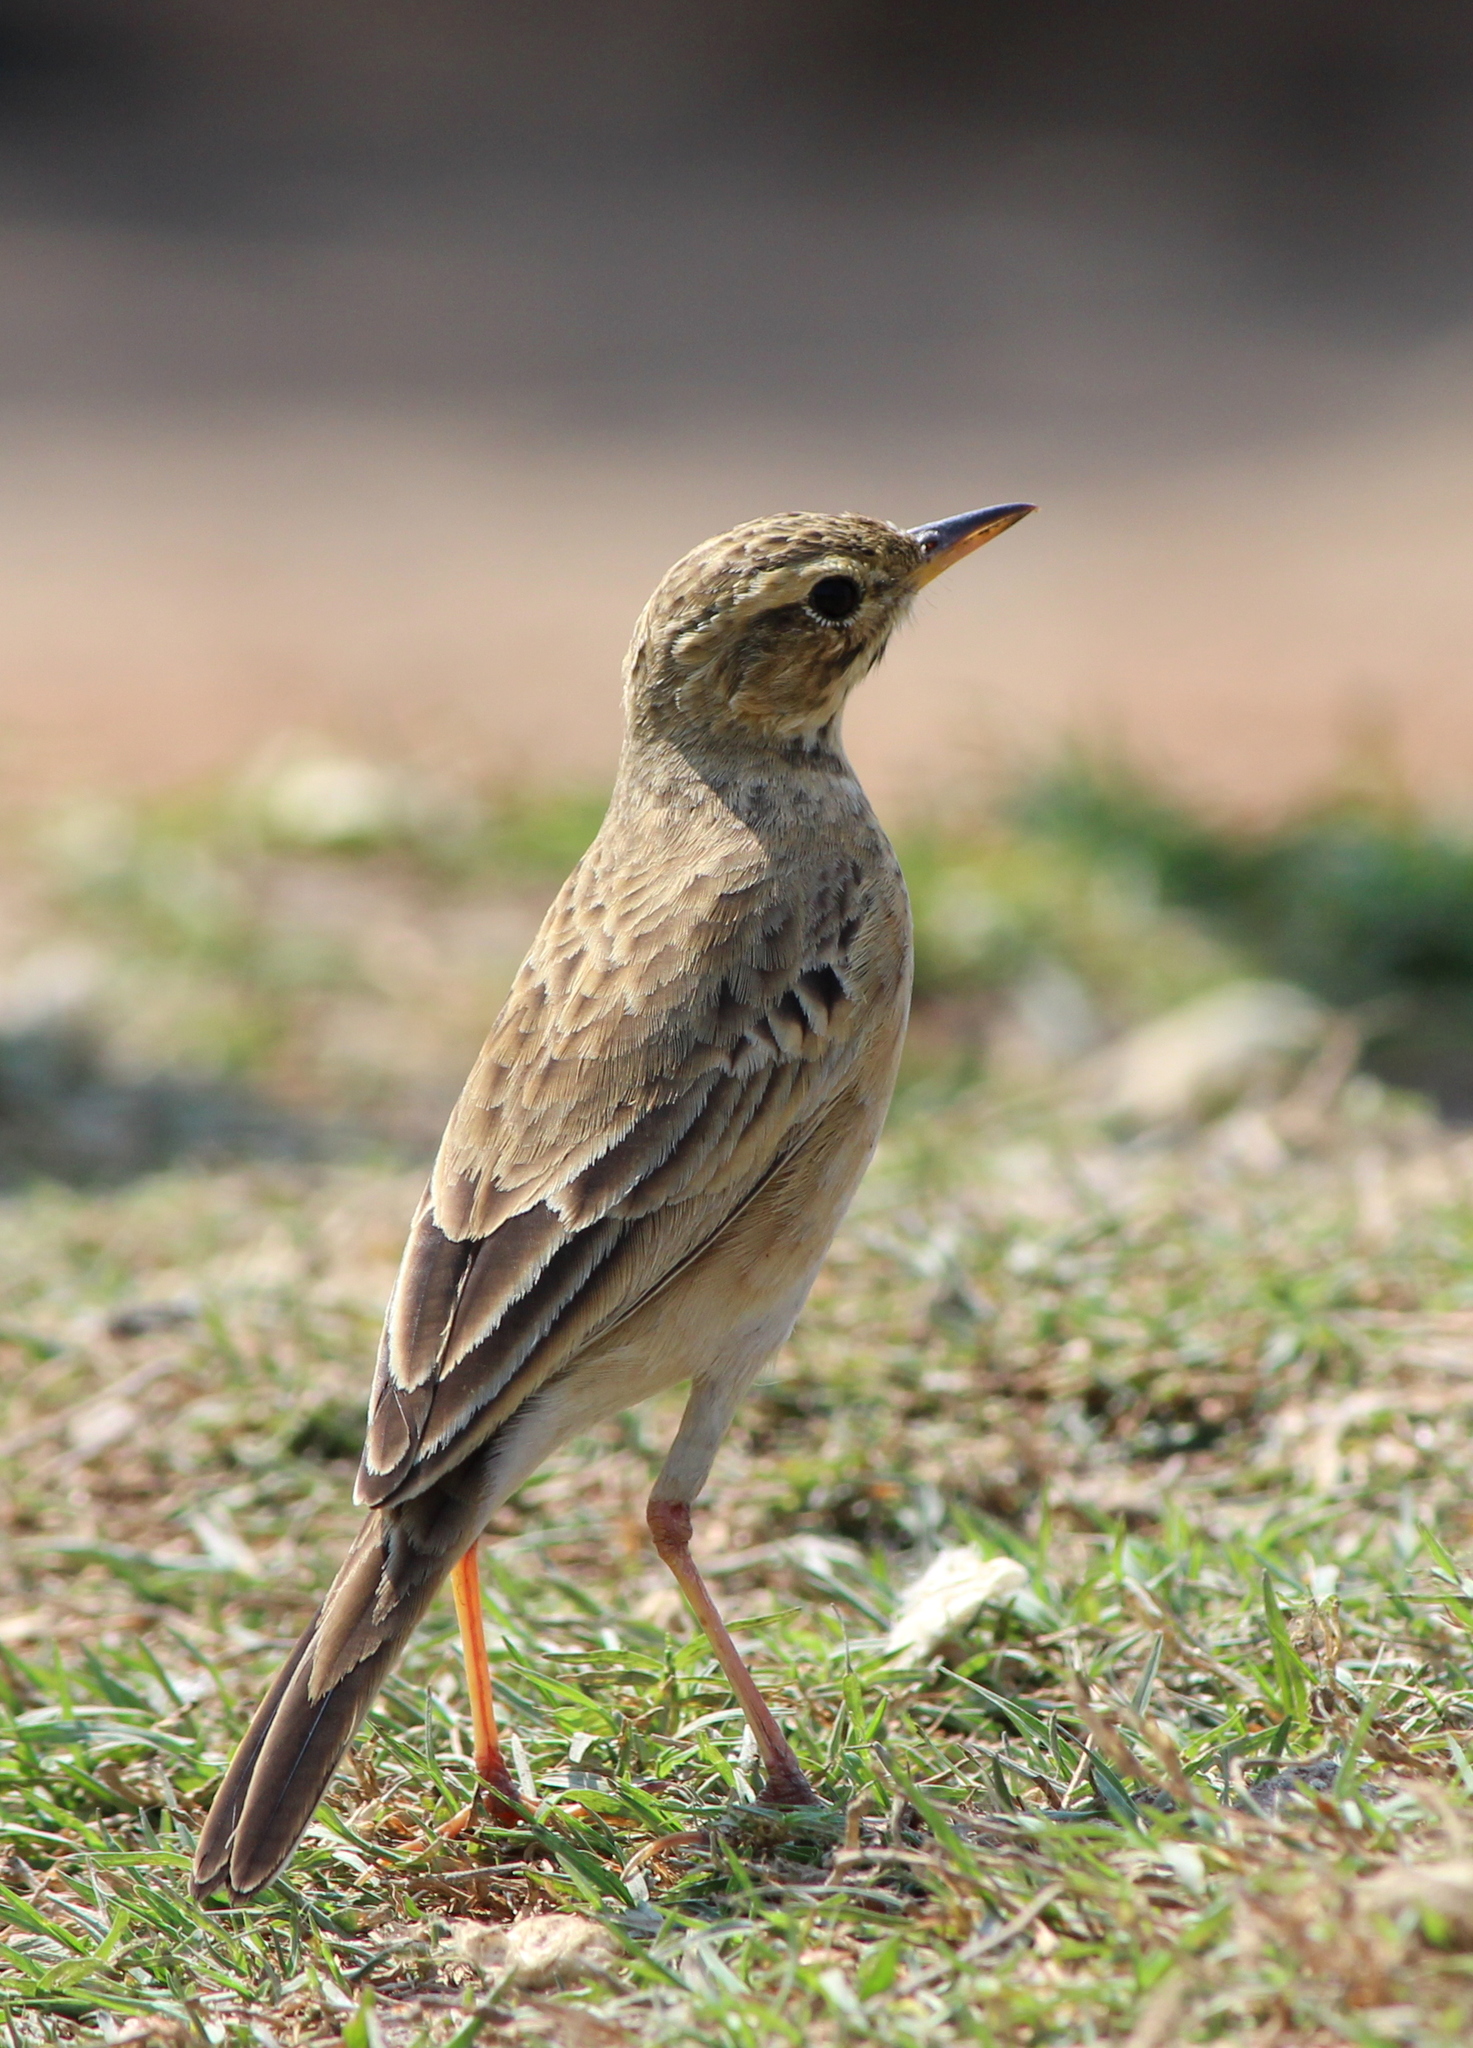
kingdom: Animalia
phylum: Chordata
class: Aves
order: Passeriformes
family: Motacillidae
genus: Anthus
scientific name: Anthus rufulus
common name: Paddyfield pipit
